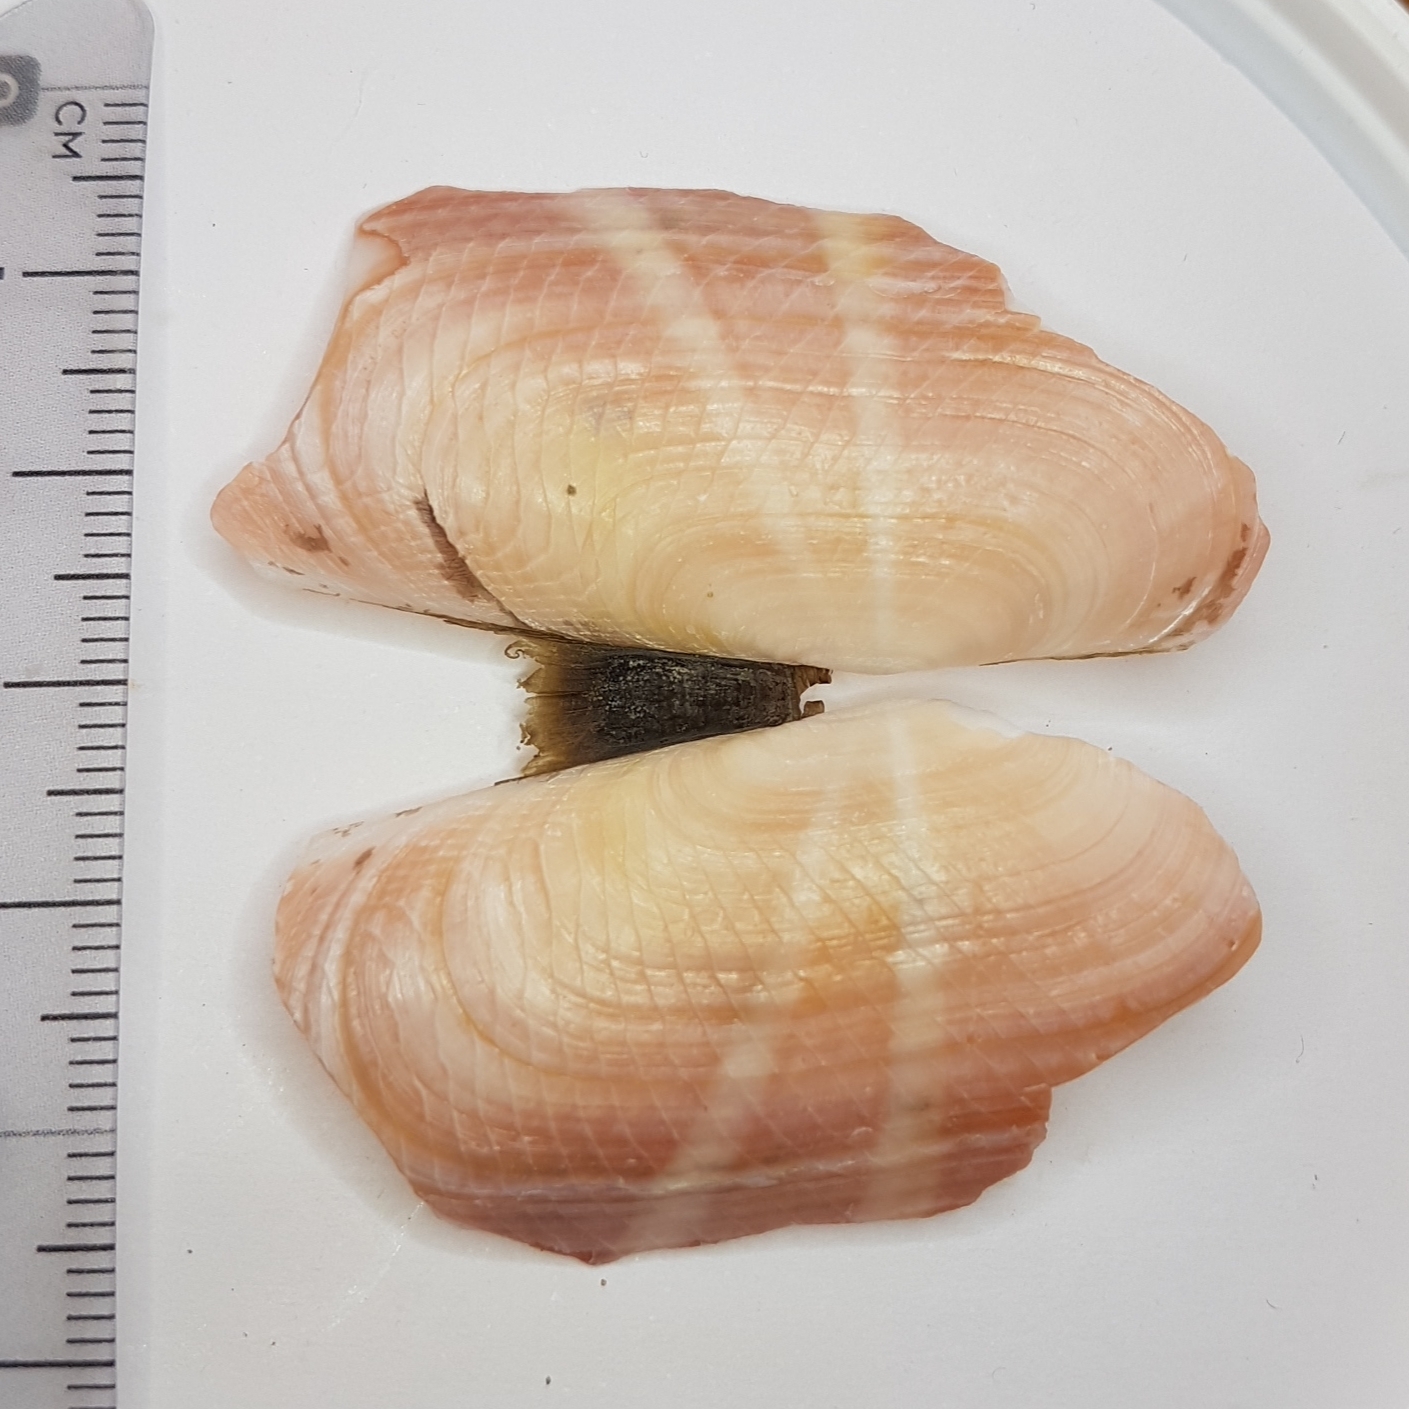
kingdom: Animalia
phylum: Mollusca
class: Bivalvia
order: Cardiida
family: Solecurtidae
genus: Solecurtus
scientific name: Solecurtus strigilatus
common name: Rosy razor clam
